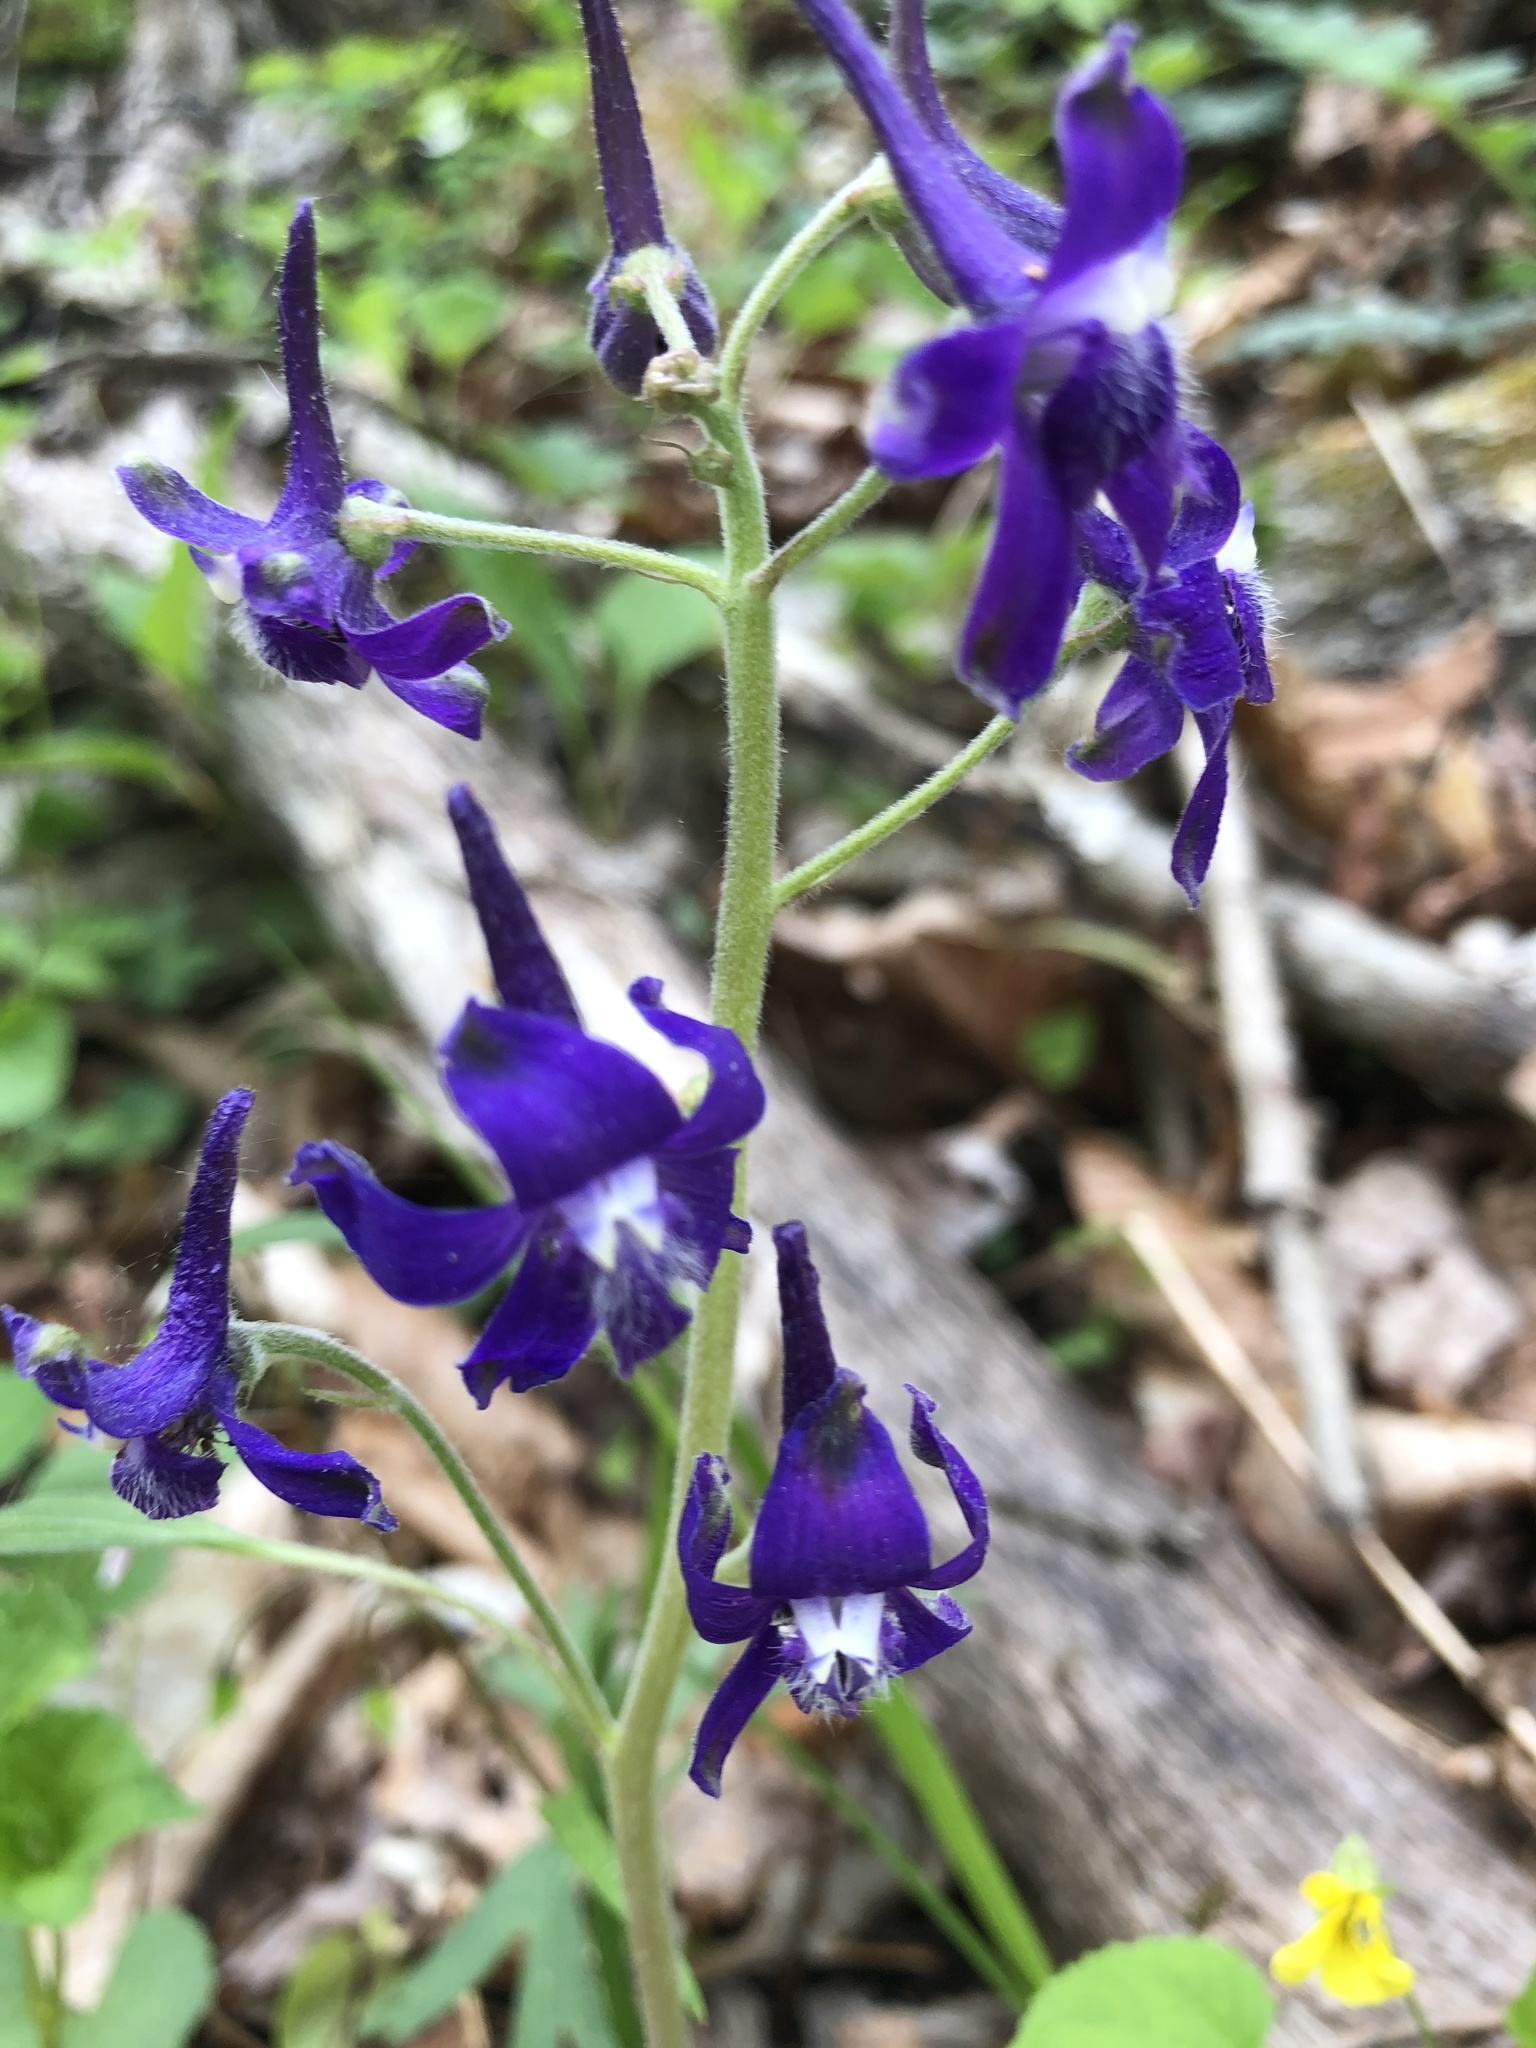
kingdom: Plantae
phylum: Tracheophyta
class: Magnoliopsida
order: Ranunculales
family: Ranunculaceae
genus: Delphinium
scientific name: Delphinium tricorne
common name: Dwarf larkspur
